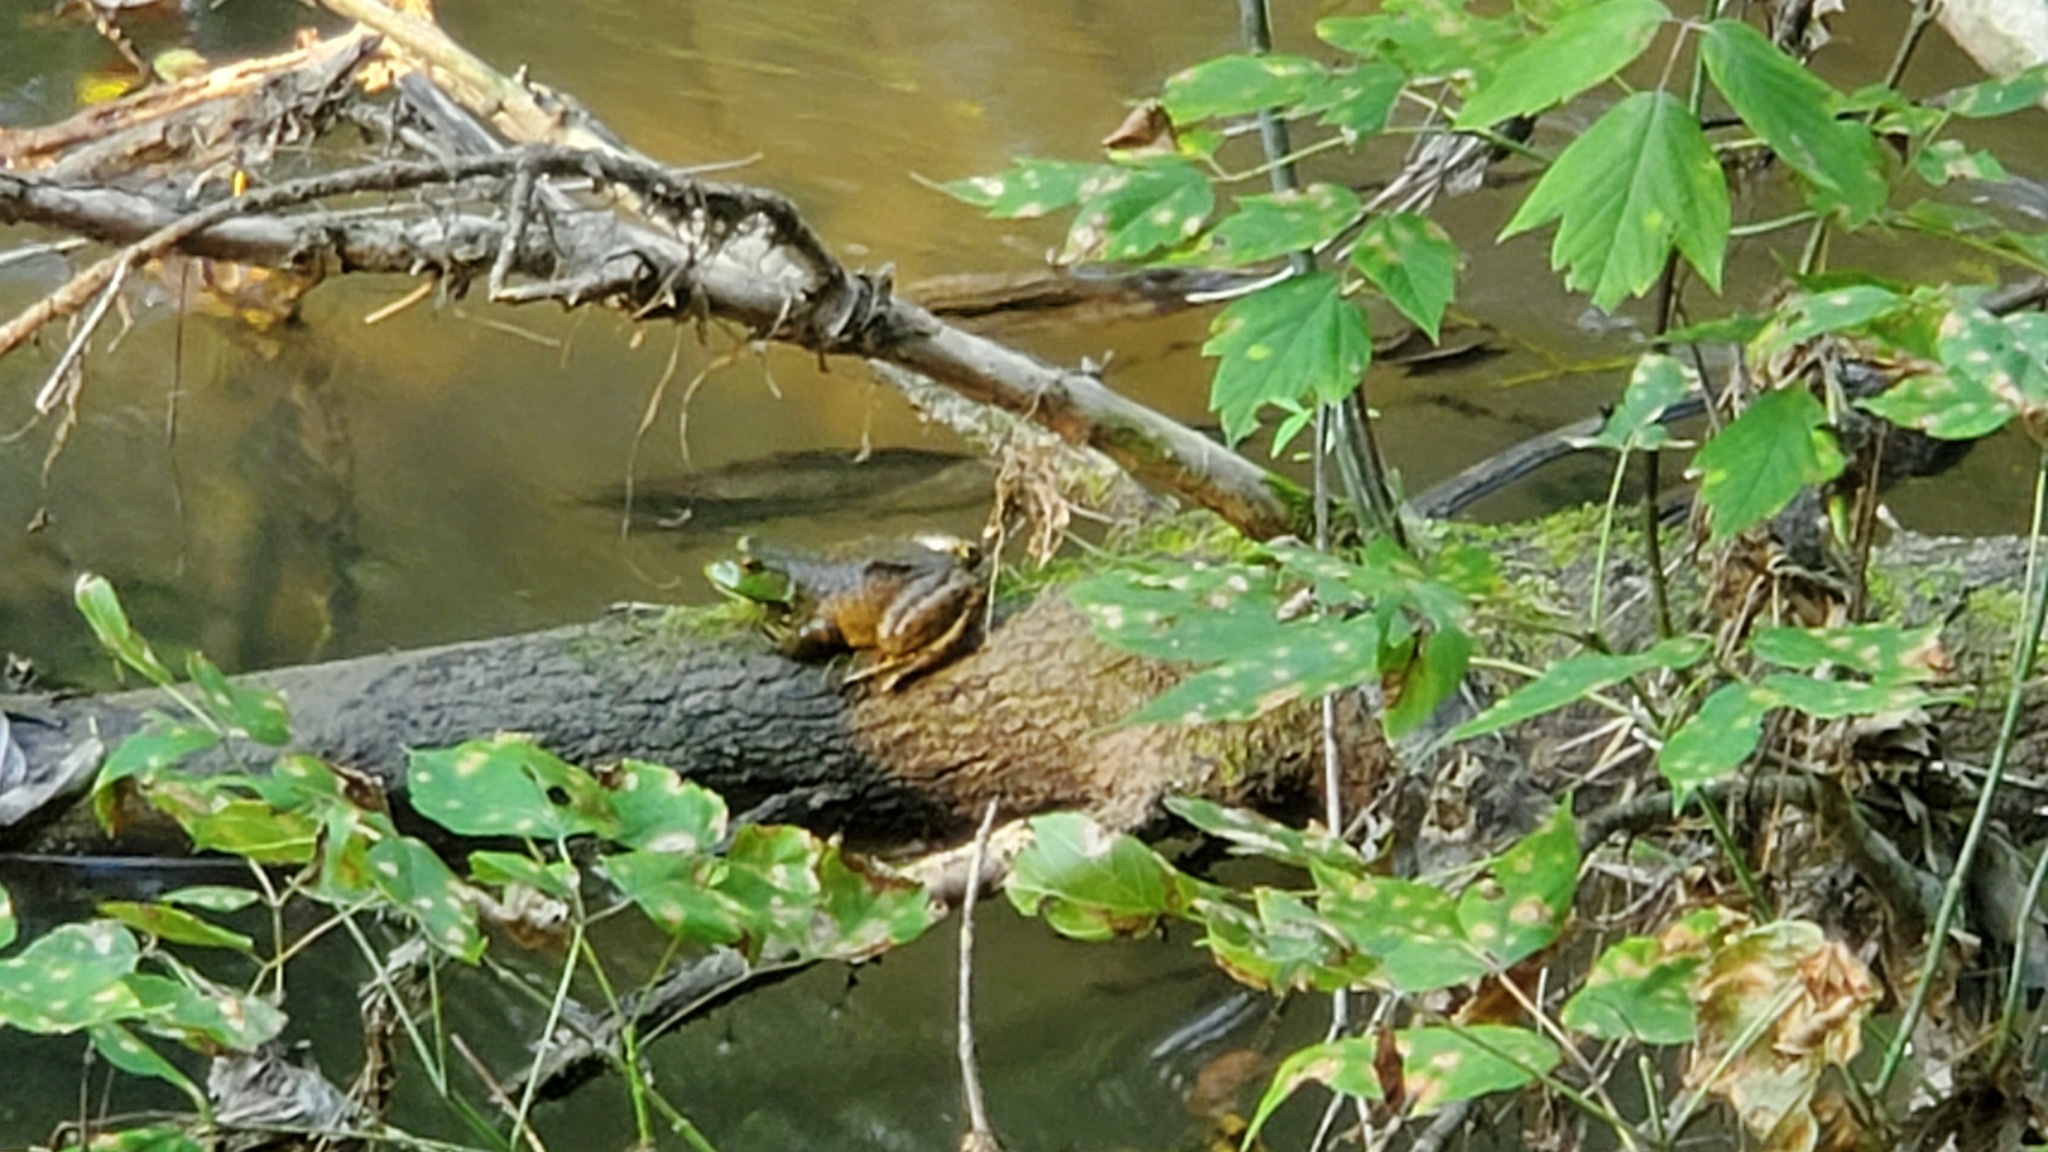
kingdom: Animalia
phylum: Chordata
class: Amphibia
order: Anura
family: Ranidae
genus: Lithobates
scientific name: Lithobates catesbeianus
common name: American bullfrog
